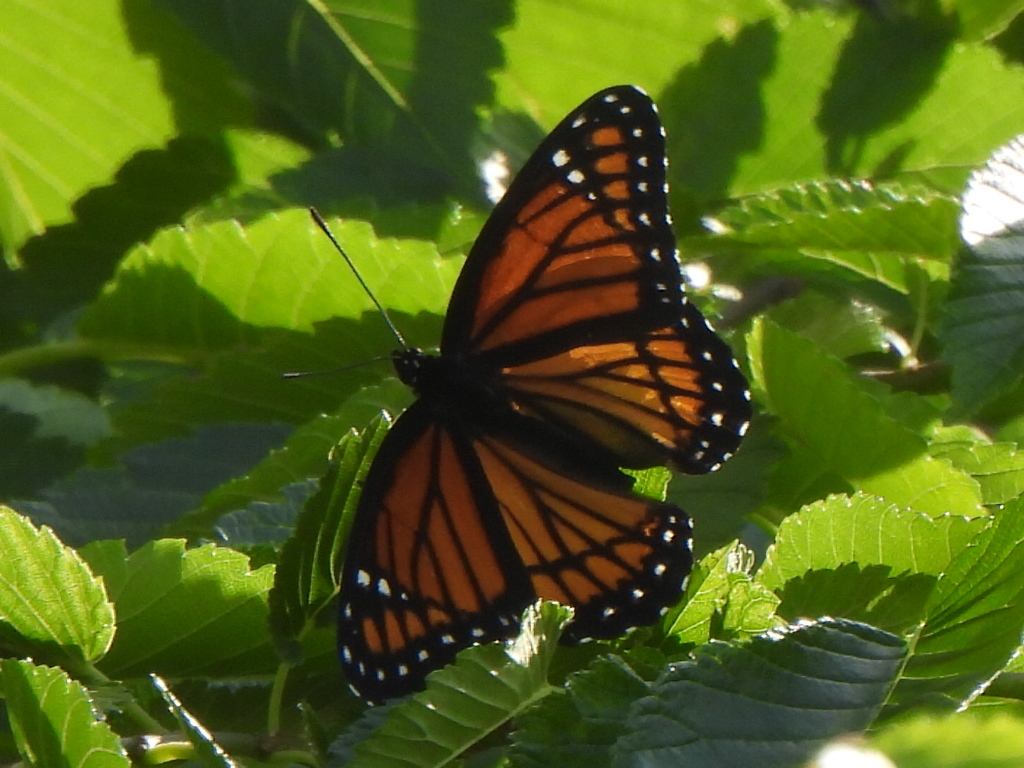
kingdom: Animalia
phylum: Arthropoda
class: Insecta
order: Lepidoptera
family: Nymphalidae
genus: Limenitis
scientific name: Limenitis archippus
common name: Viceroy
